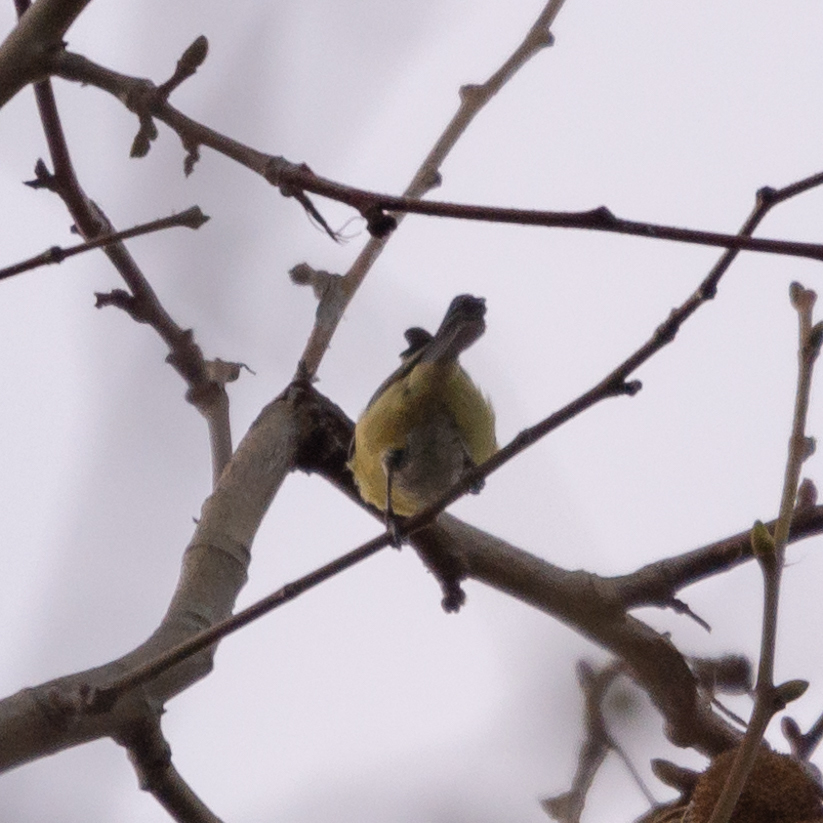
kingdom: Animalia
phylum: Chordata
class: Aves
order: Passeriformes
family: Paridae
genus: Cyanistes
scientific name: Cyanistes caeruleus
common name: Eurasian blue tit
